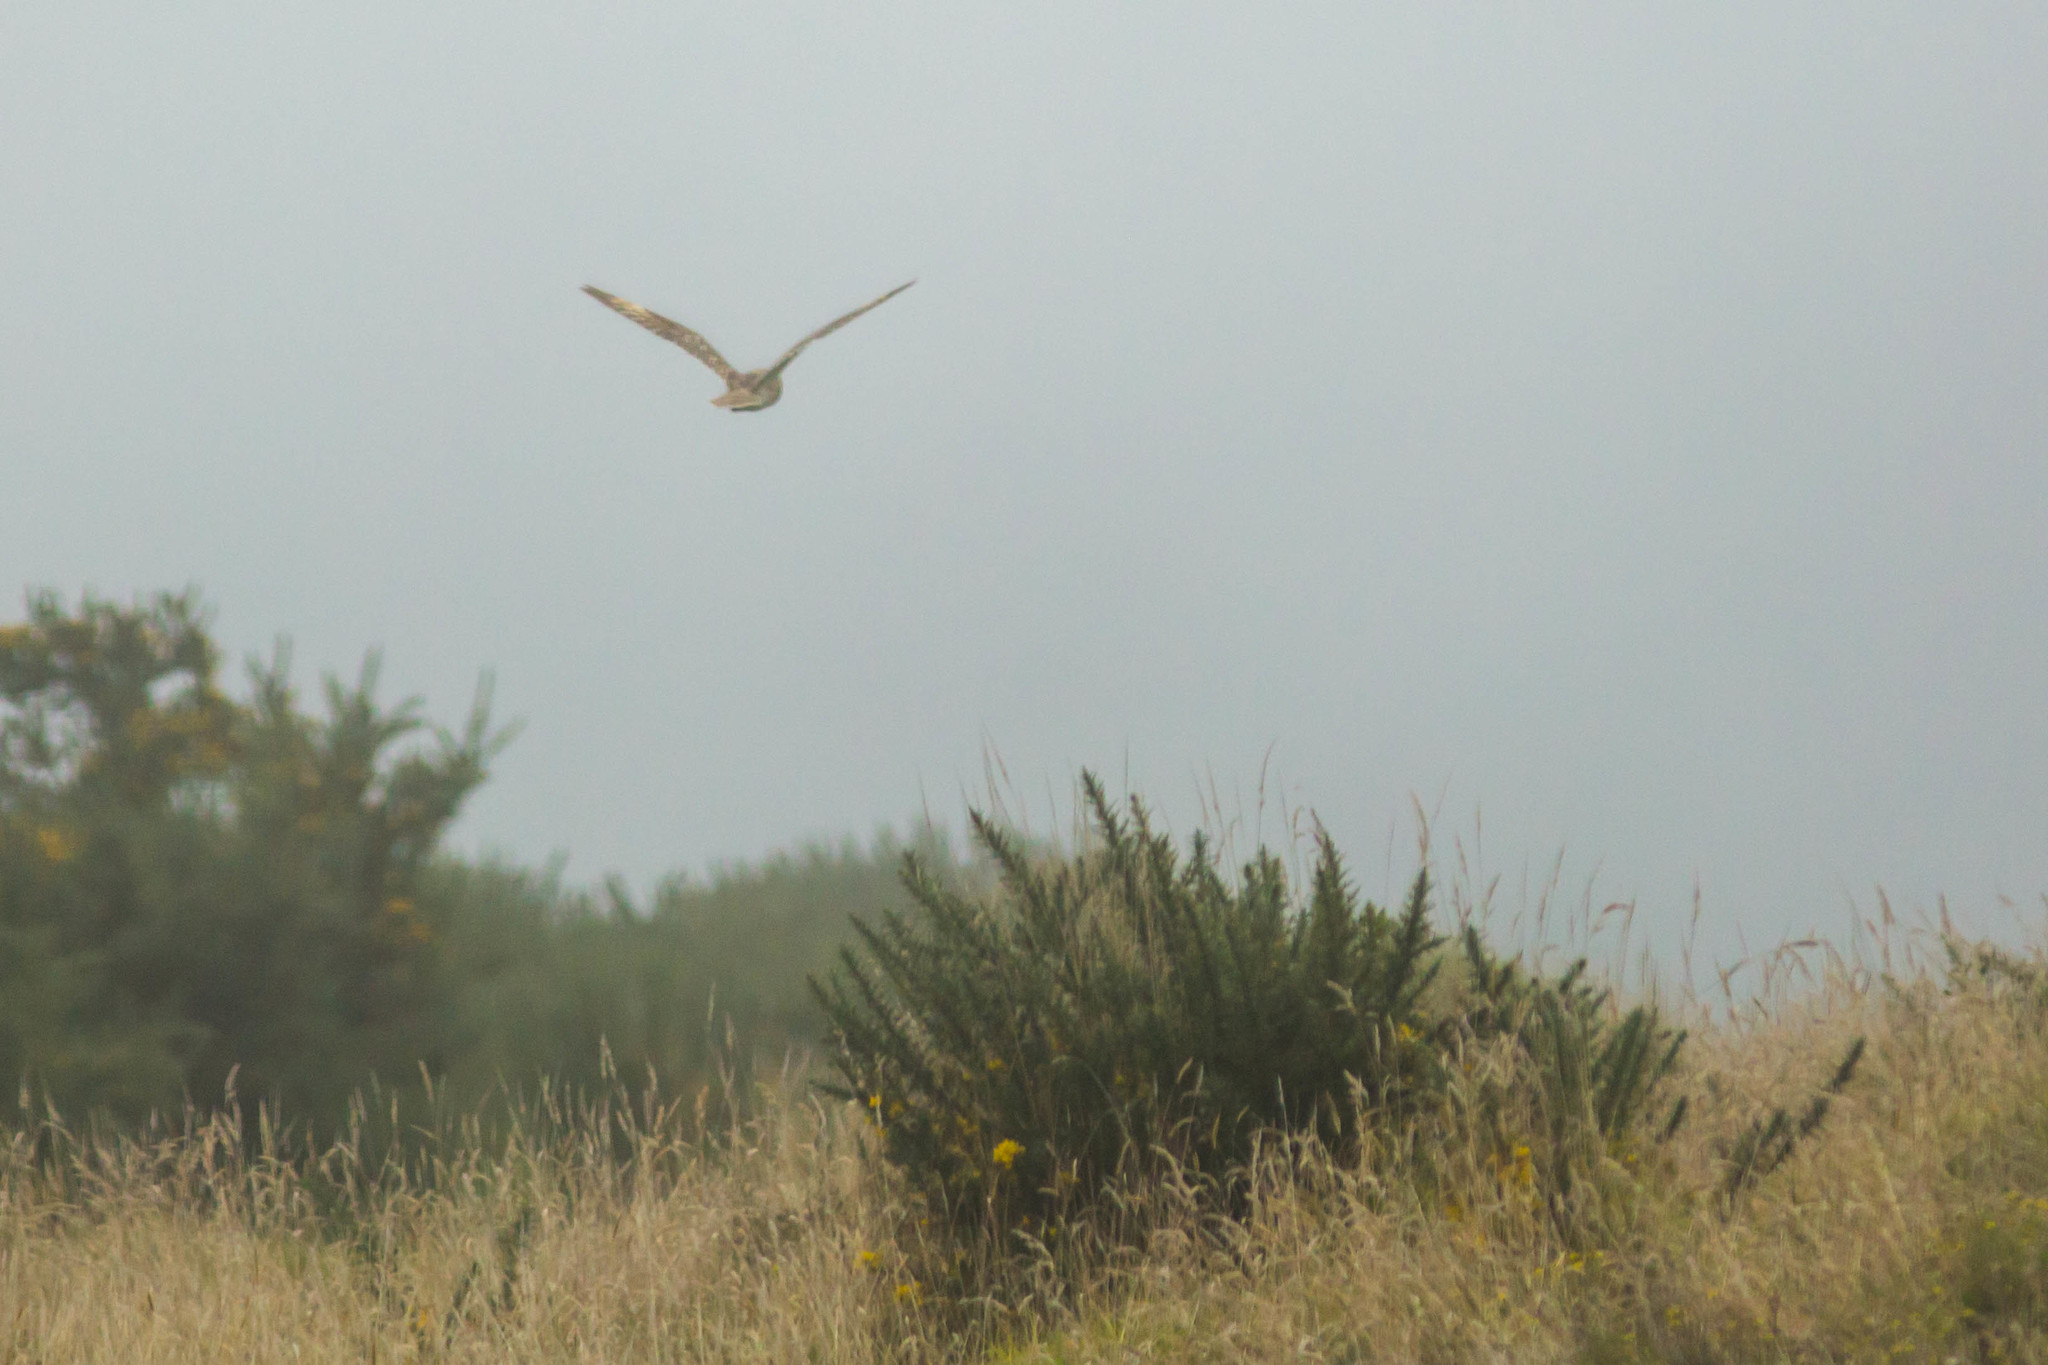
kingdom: Animalia
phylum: Chordata
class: Aves
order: Strigiformes
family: Strigidae
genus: Asio
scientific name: Asio flammeus
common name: Short-eared owl
